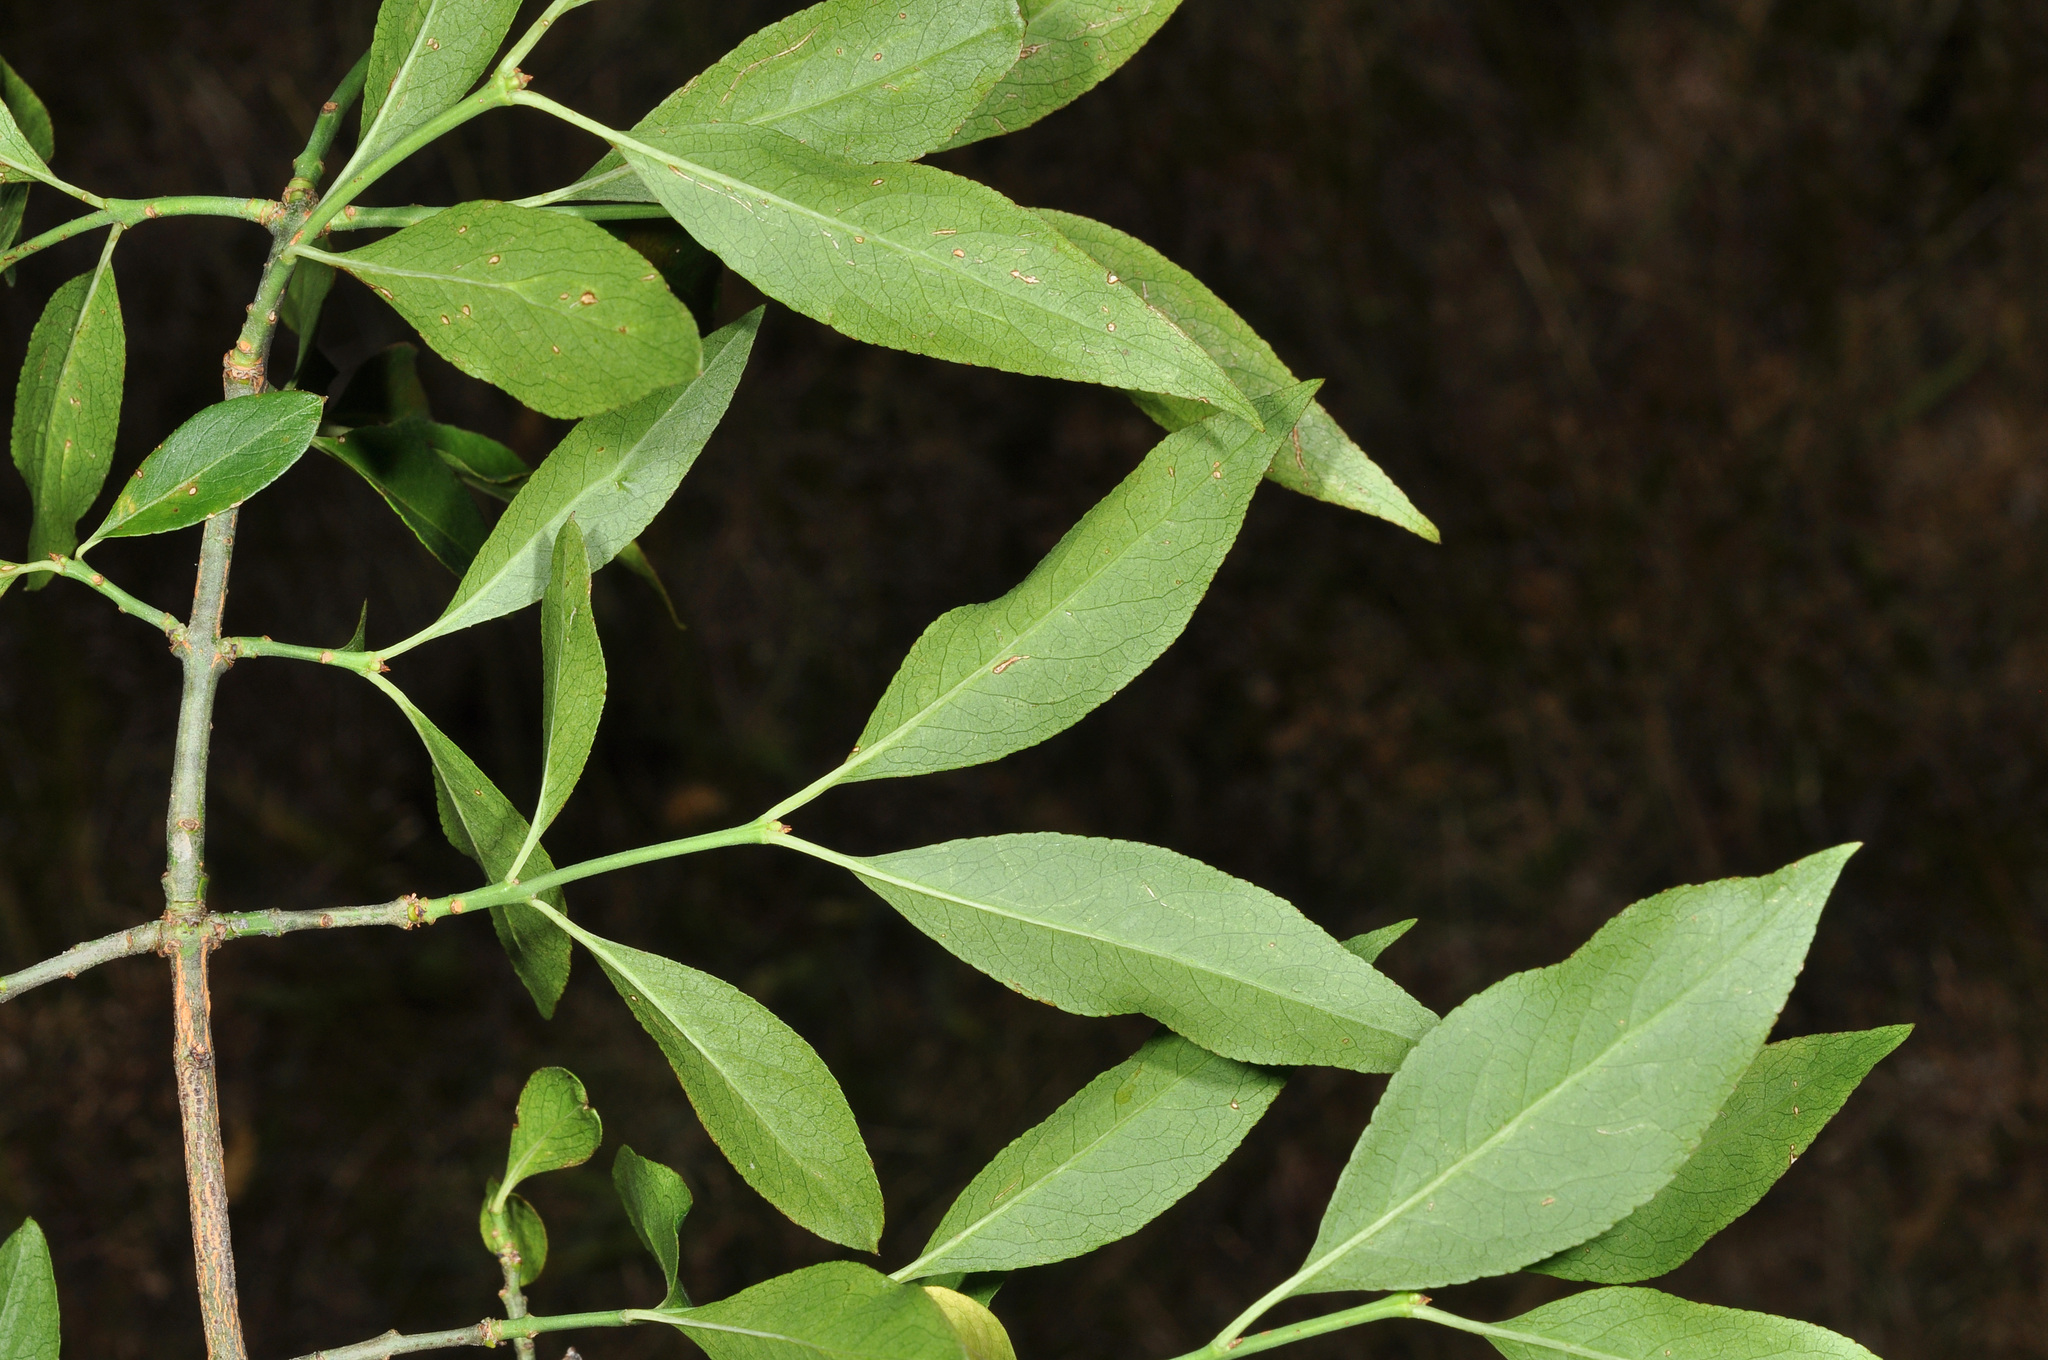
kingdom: Plantae
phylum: Tracheophyta
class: Magnoliopsida
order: Celastrales
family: Celastraceae
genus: Euonymus
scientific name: Euonymus europaeus
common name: Spindle
